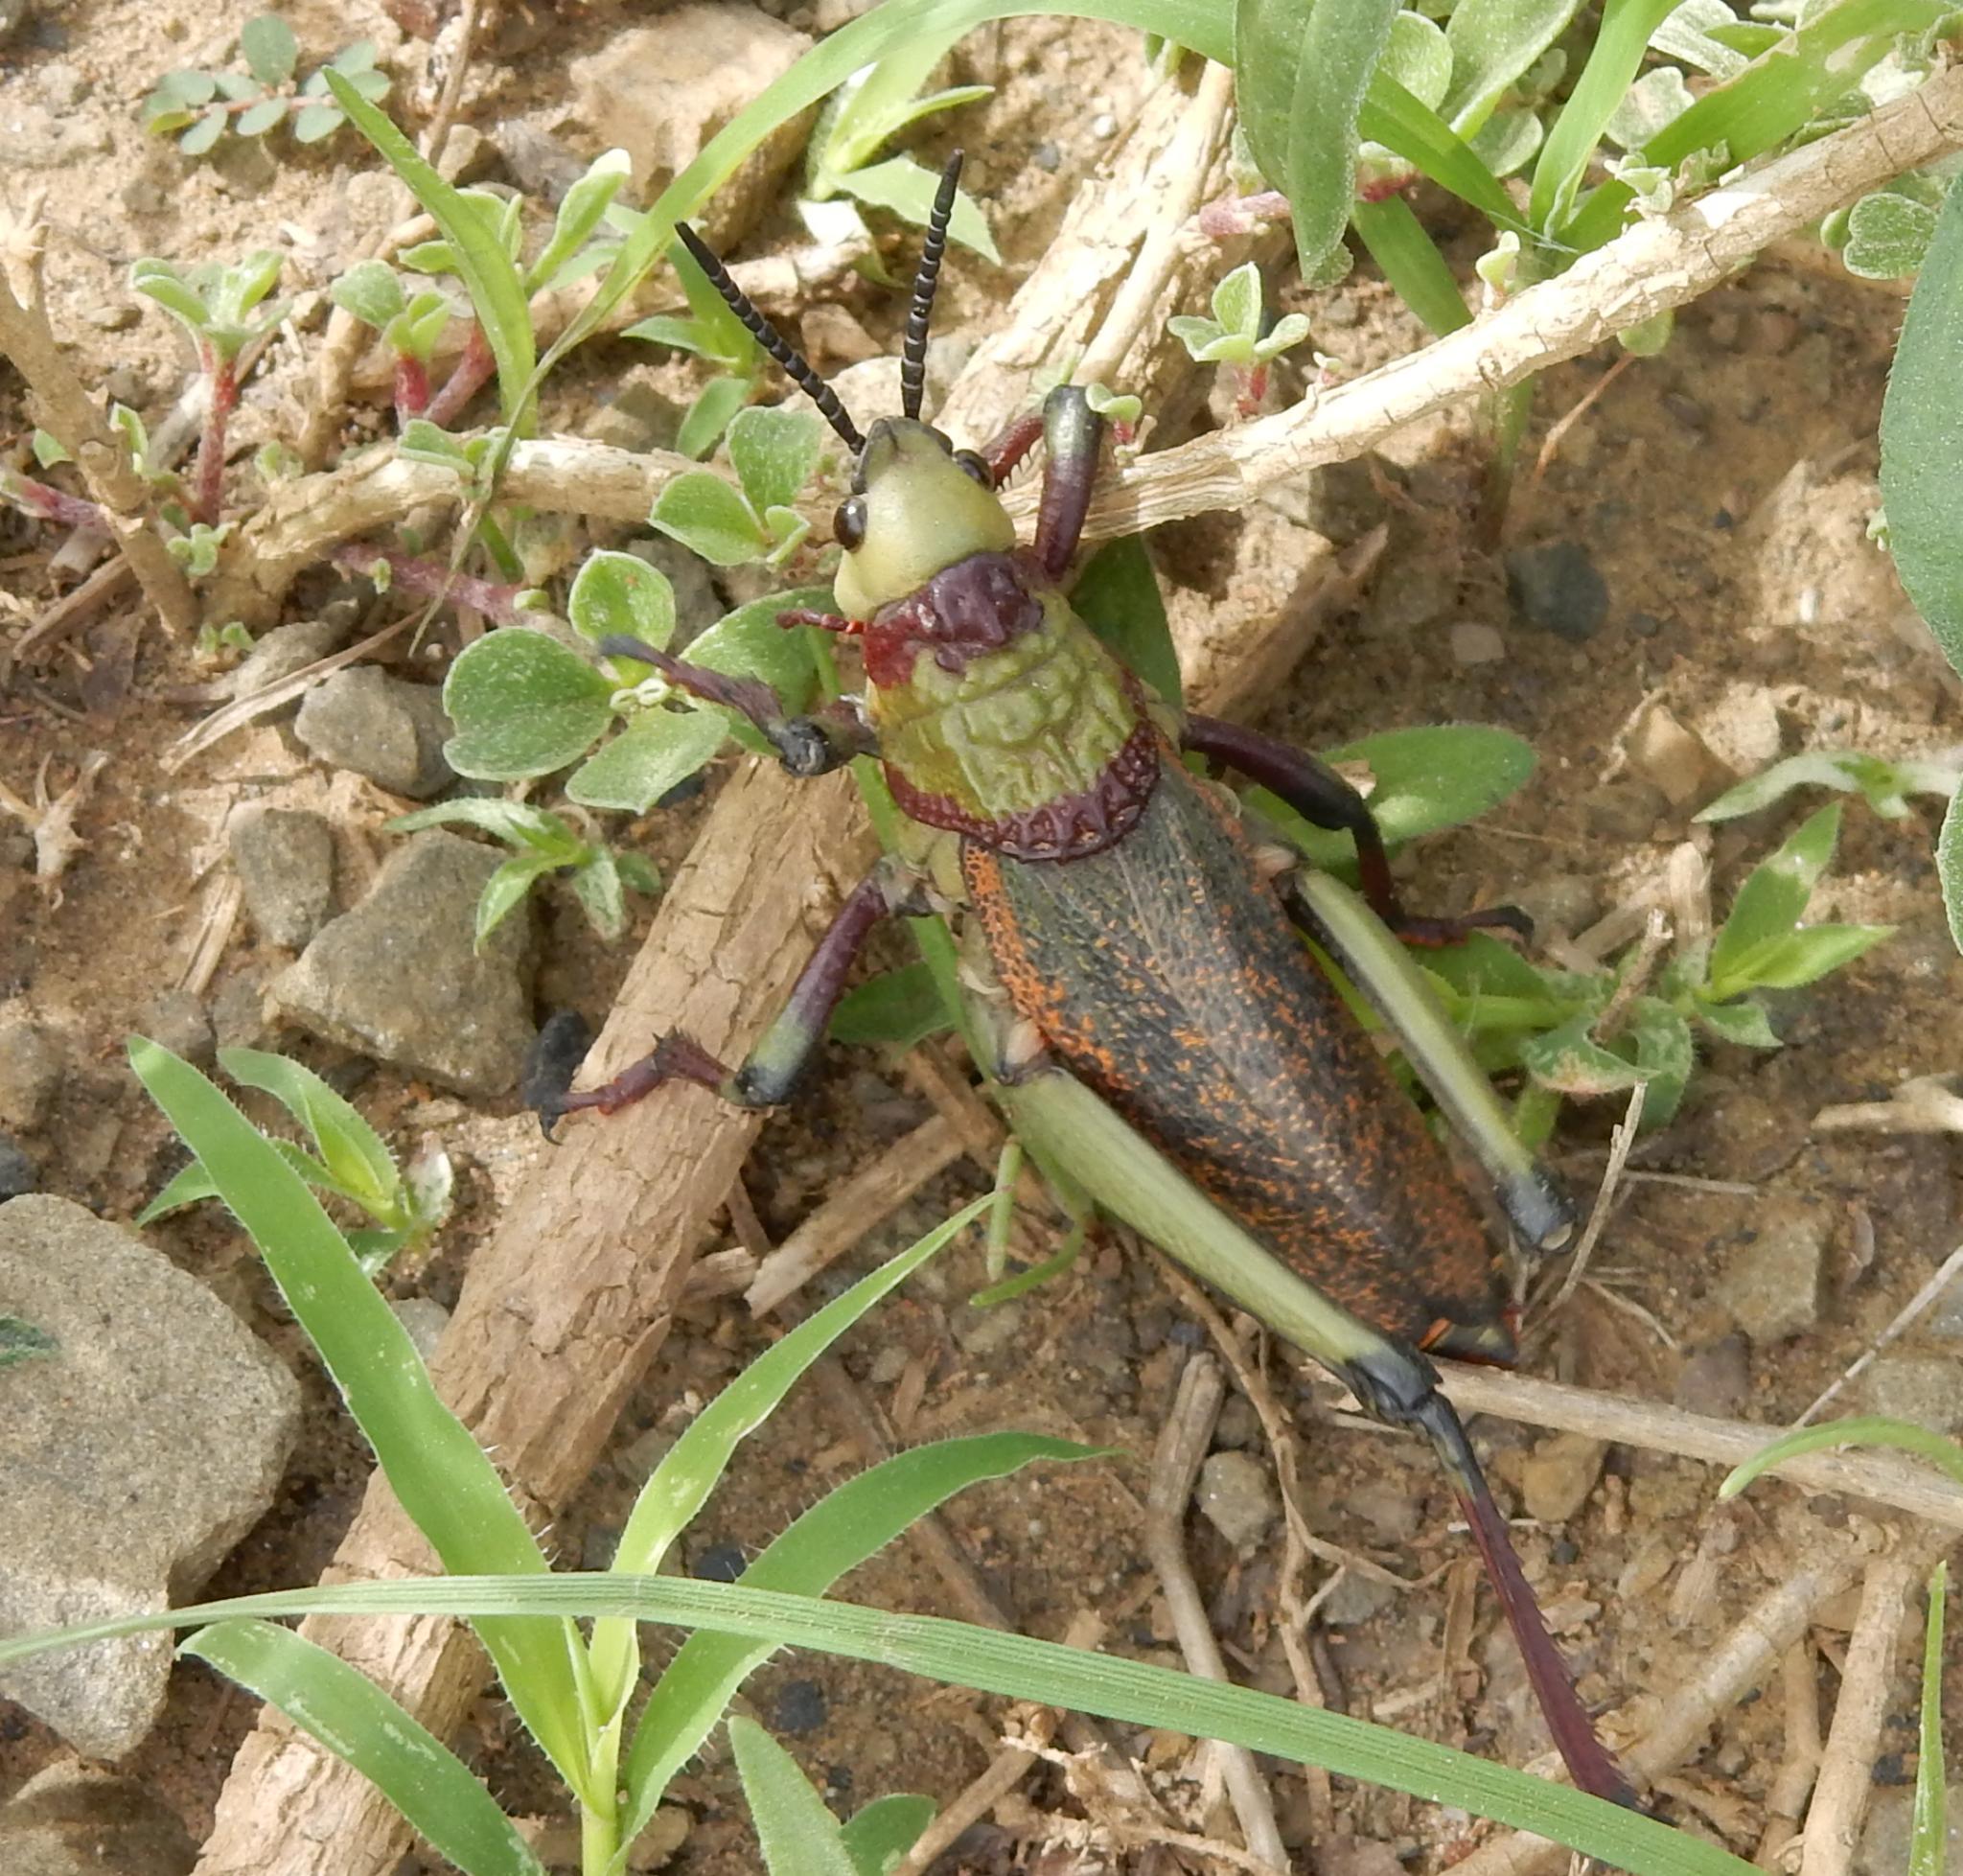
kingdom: Animalia
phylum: Arthropoda
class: Insecta
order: Orthoptera
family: Pyrgomorphidae
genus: Dictyophorus
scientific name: Dictyophorus spumans
